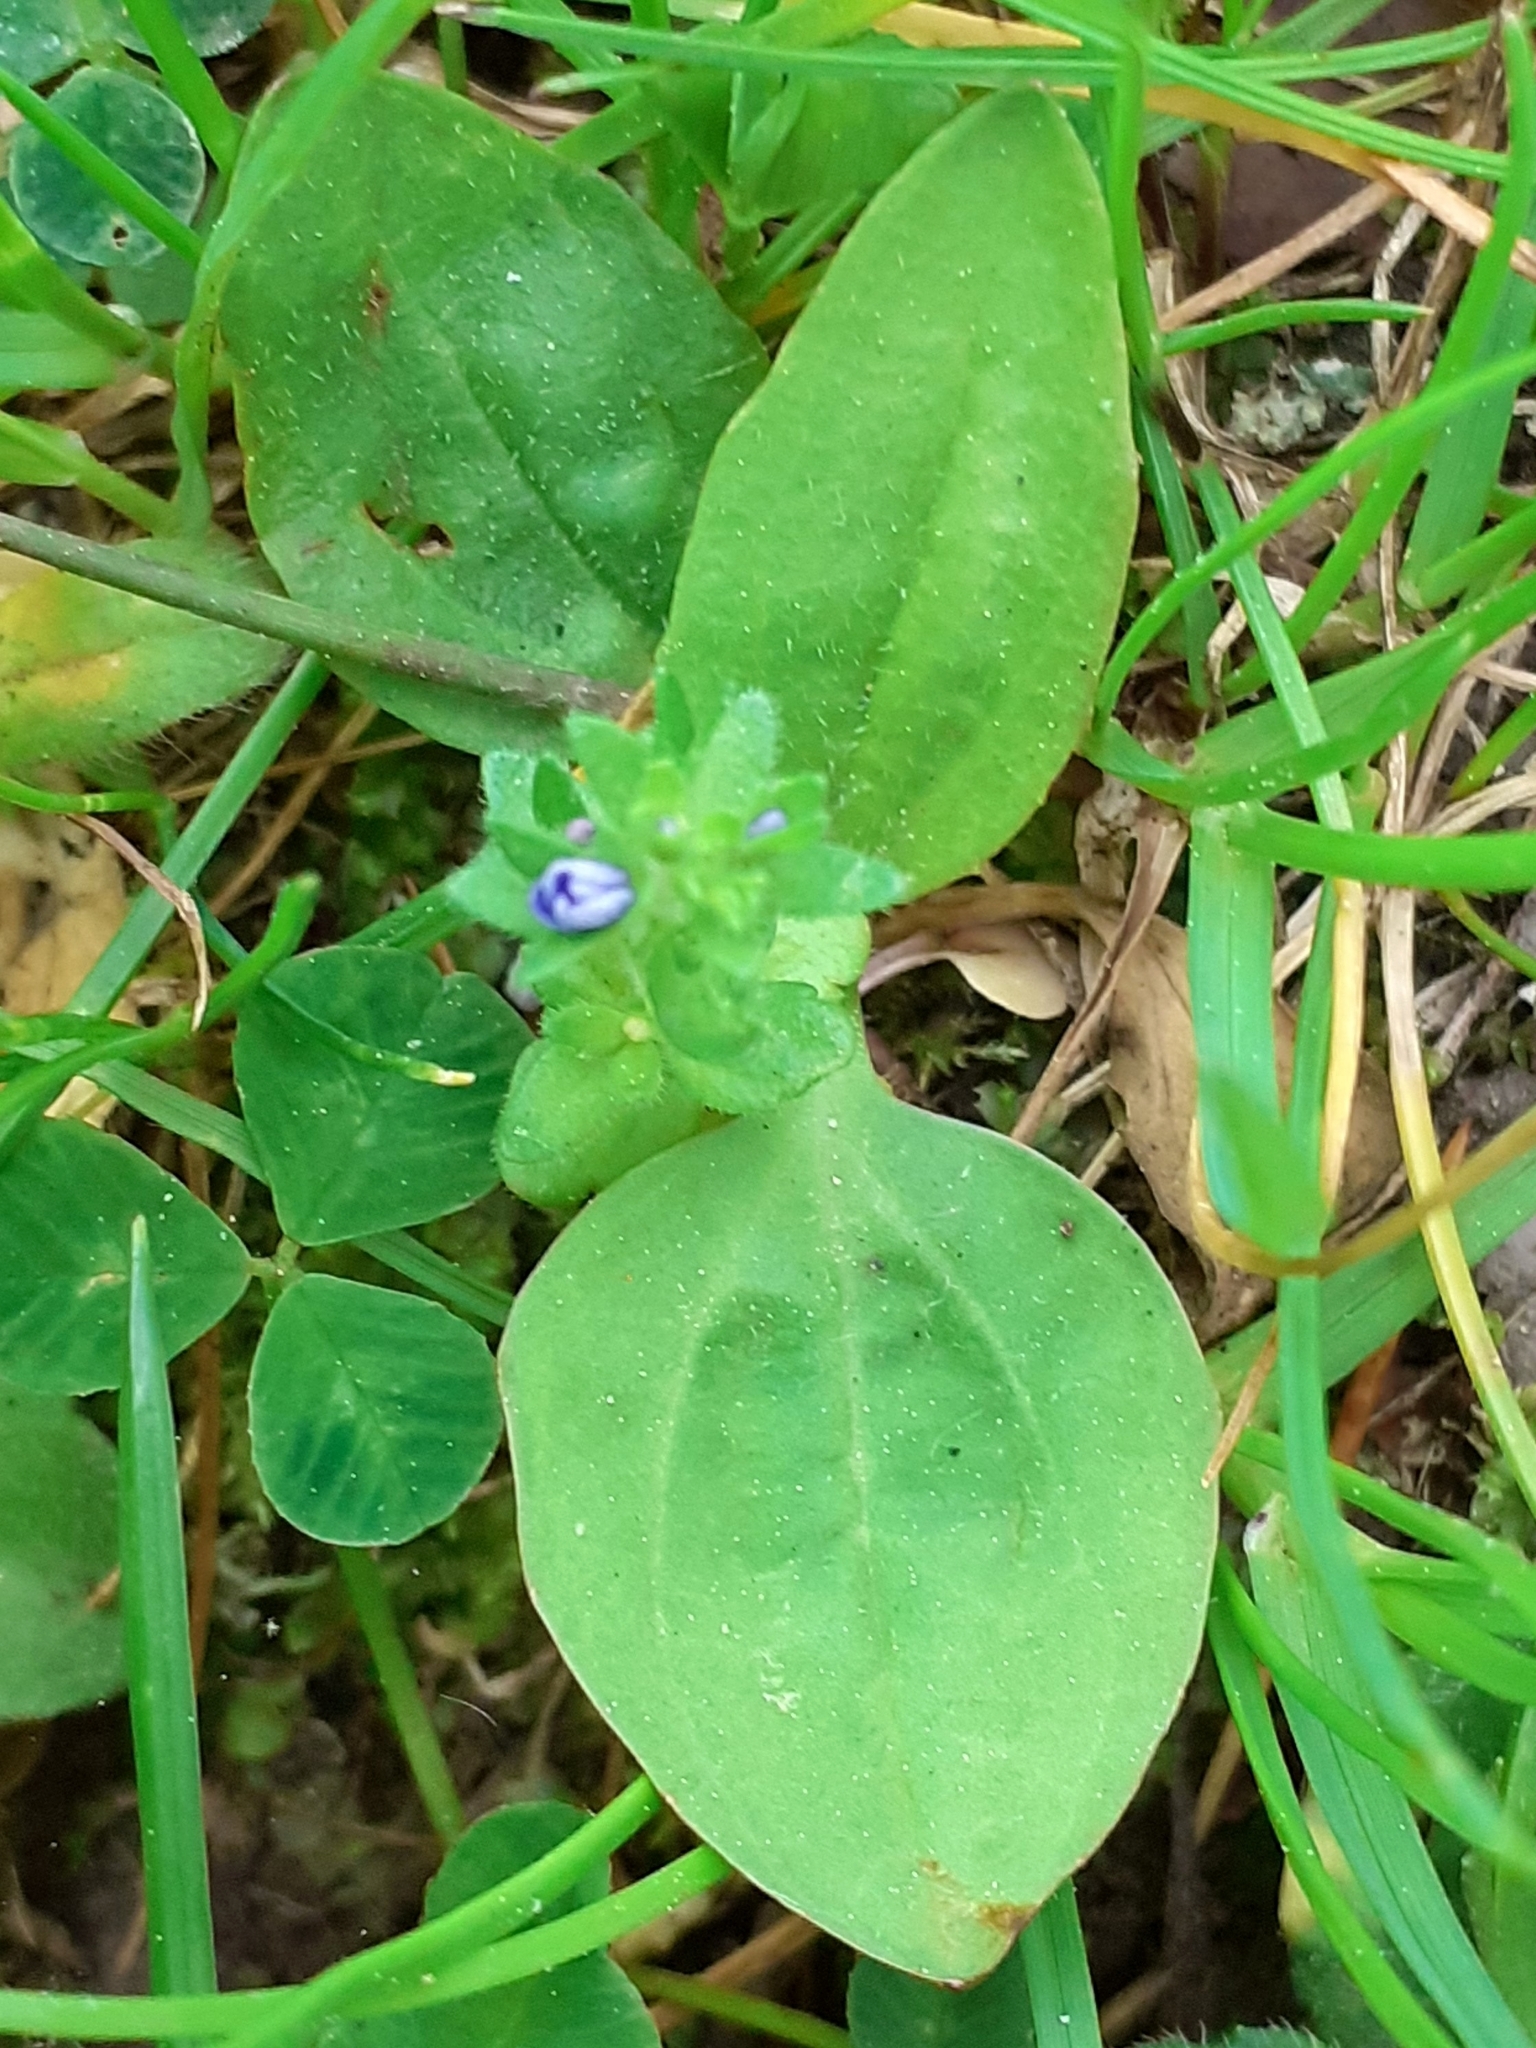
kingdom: Plantae
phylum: Tracheophyta
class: Magnoliopsida
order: Lamiales
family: Plantaginaceae
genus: Veronica
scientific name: Veronica arvensis
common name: Corn speedwell
